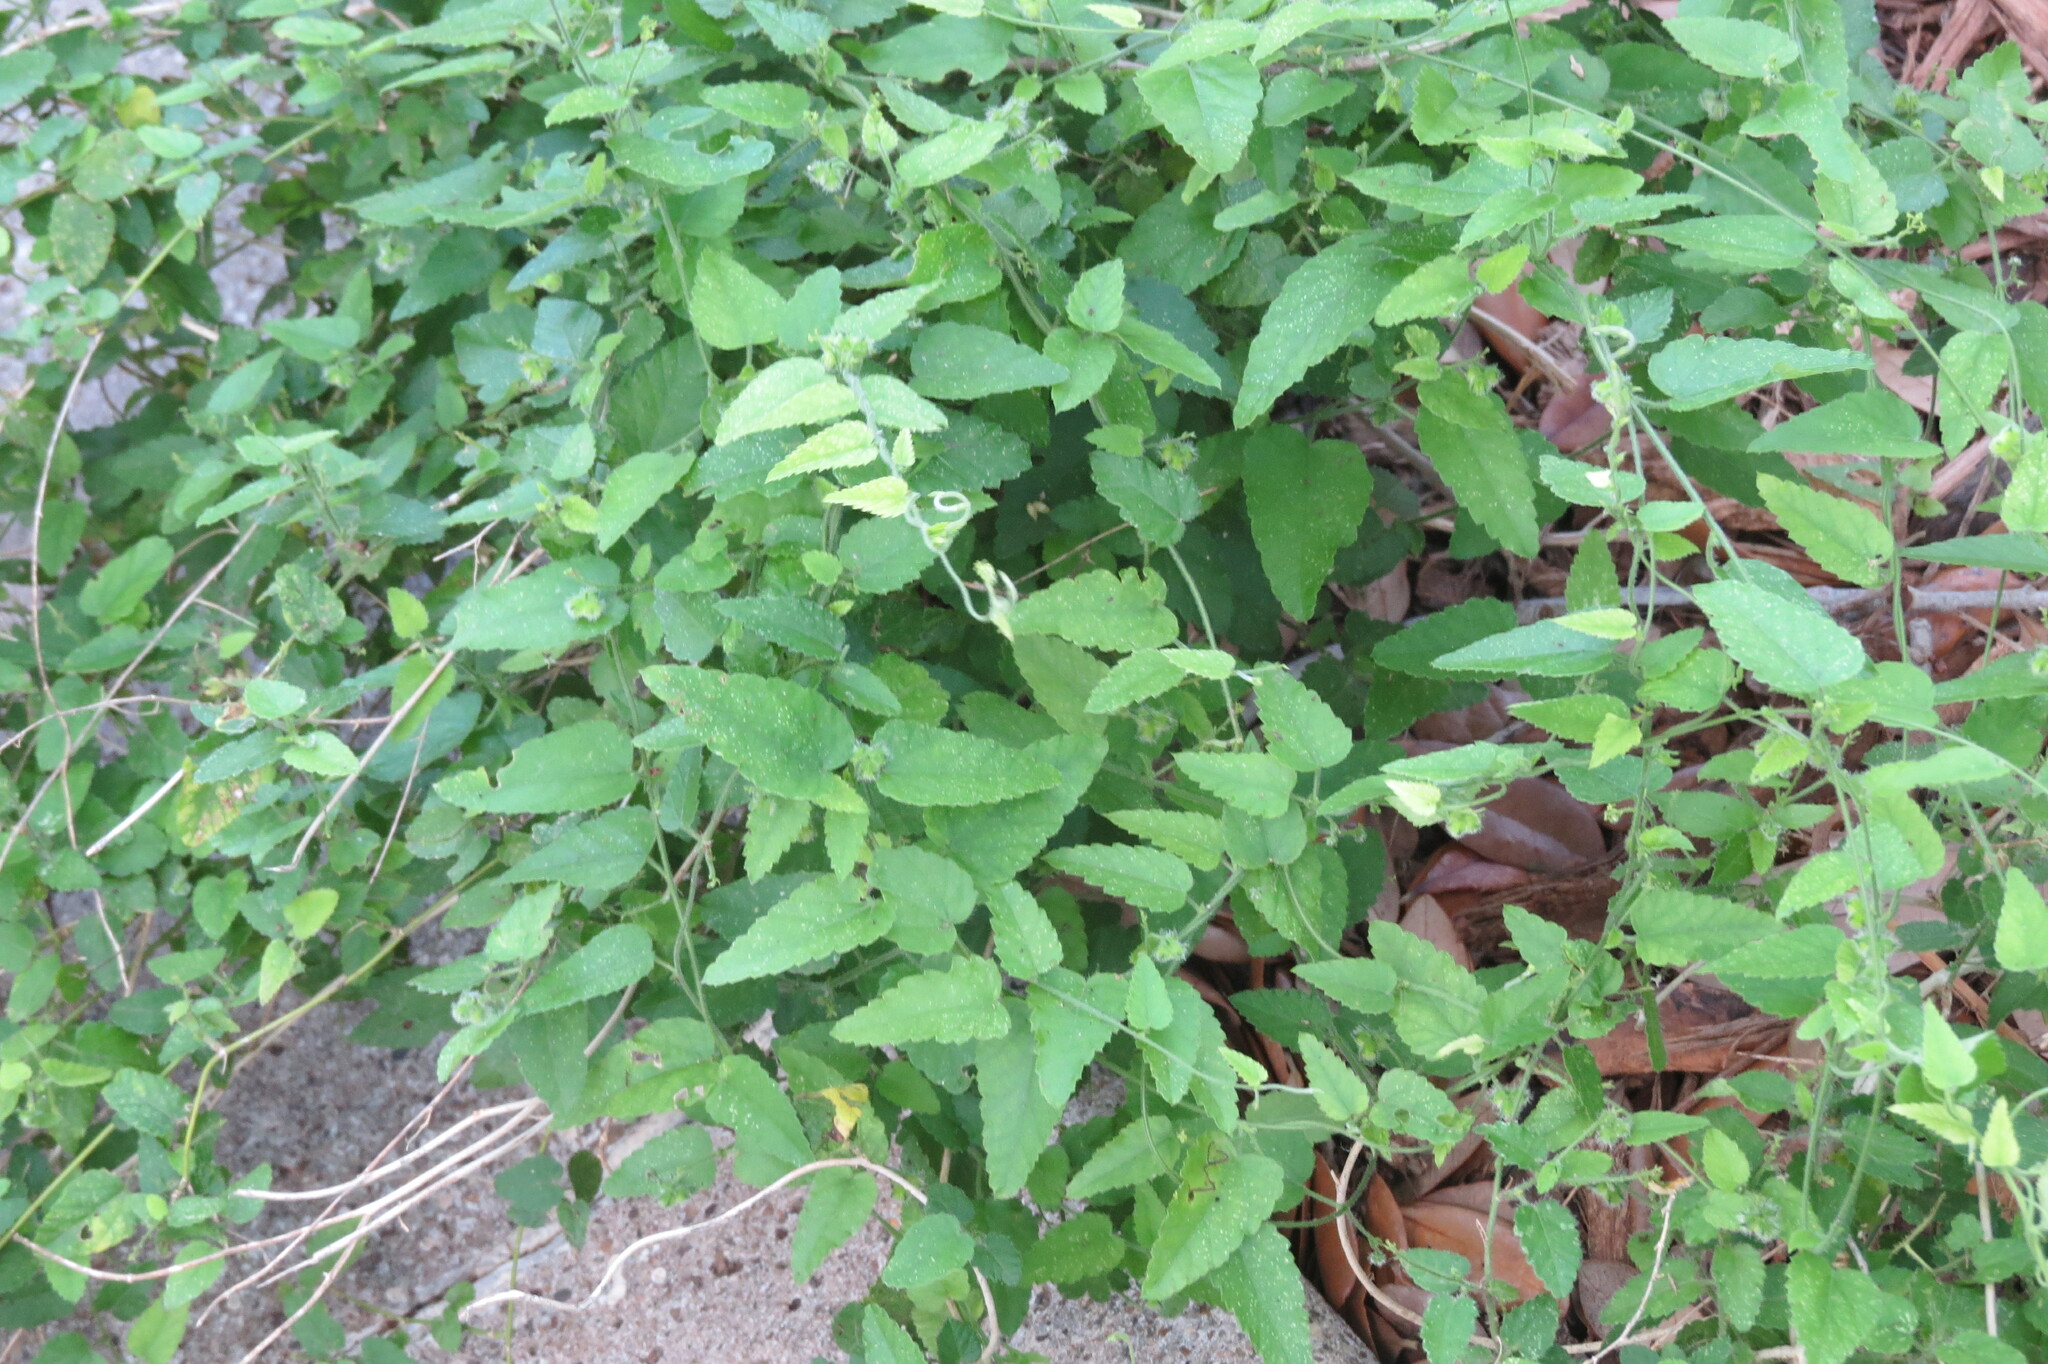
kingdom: Plantae
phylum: Tracheophyta
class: Magnoliopsida
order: Malpighiales
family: Euphorbiaceae
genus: Tragia
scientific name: Tragia glanduligera
